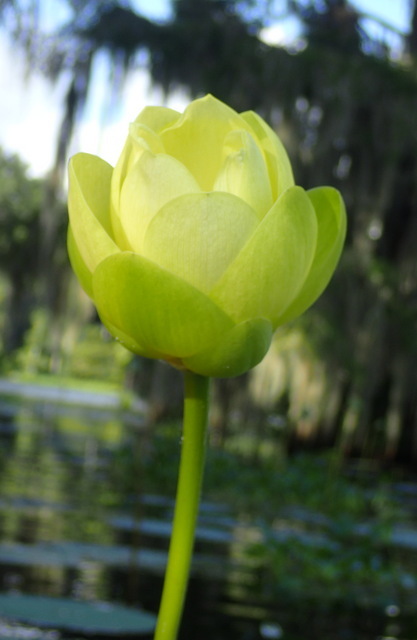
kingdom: Plantae
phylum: Tracheophyta
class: Magnoliopsida
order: Proteales
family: Nelumbonaceae
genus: Nelumbo
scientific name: Nelumbo lutea
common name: American lotus
